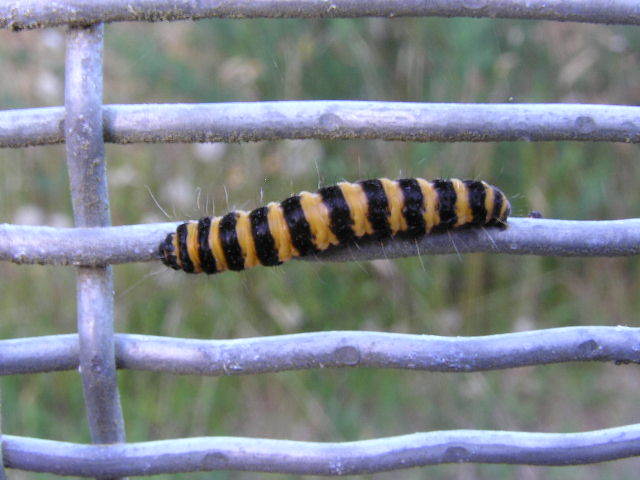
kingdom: Animalia
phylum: Arthropoda
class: Insecta
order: Lepidoptera
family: Erebidae
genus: Tyria
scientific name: Tyria jacobaeae
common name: Cinnabar
